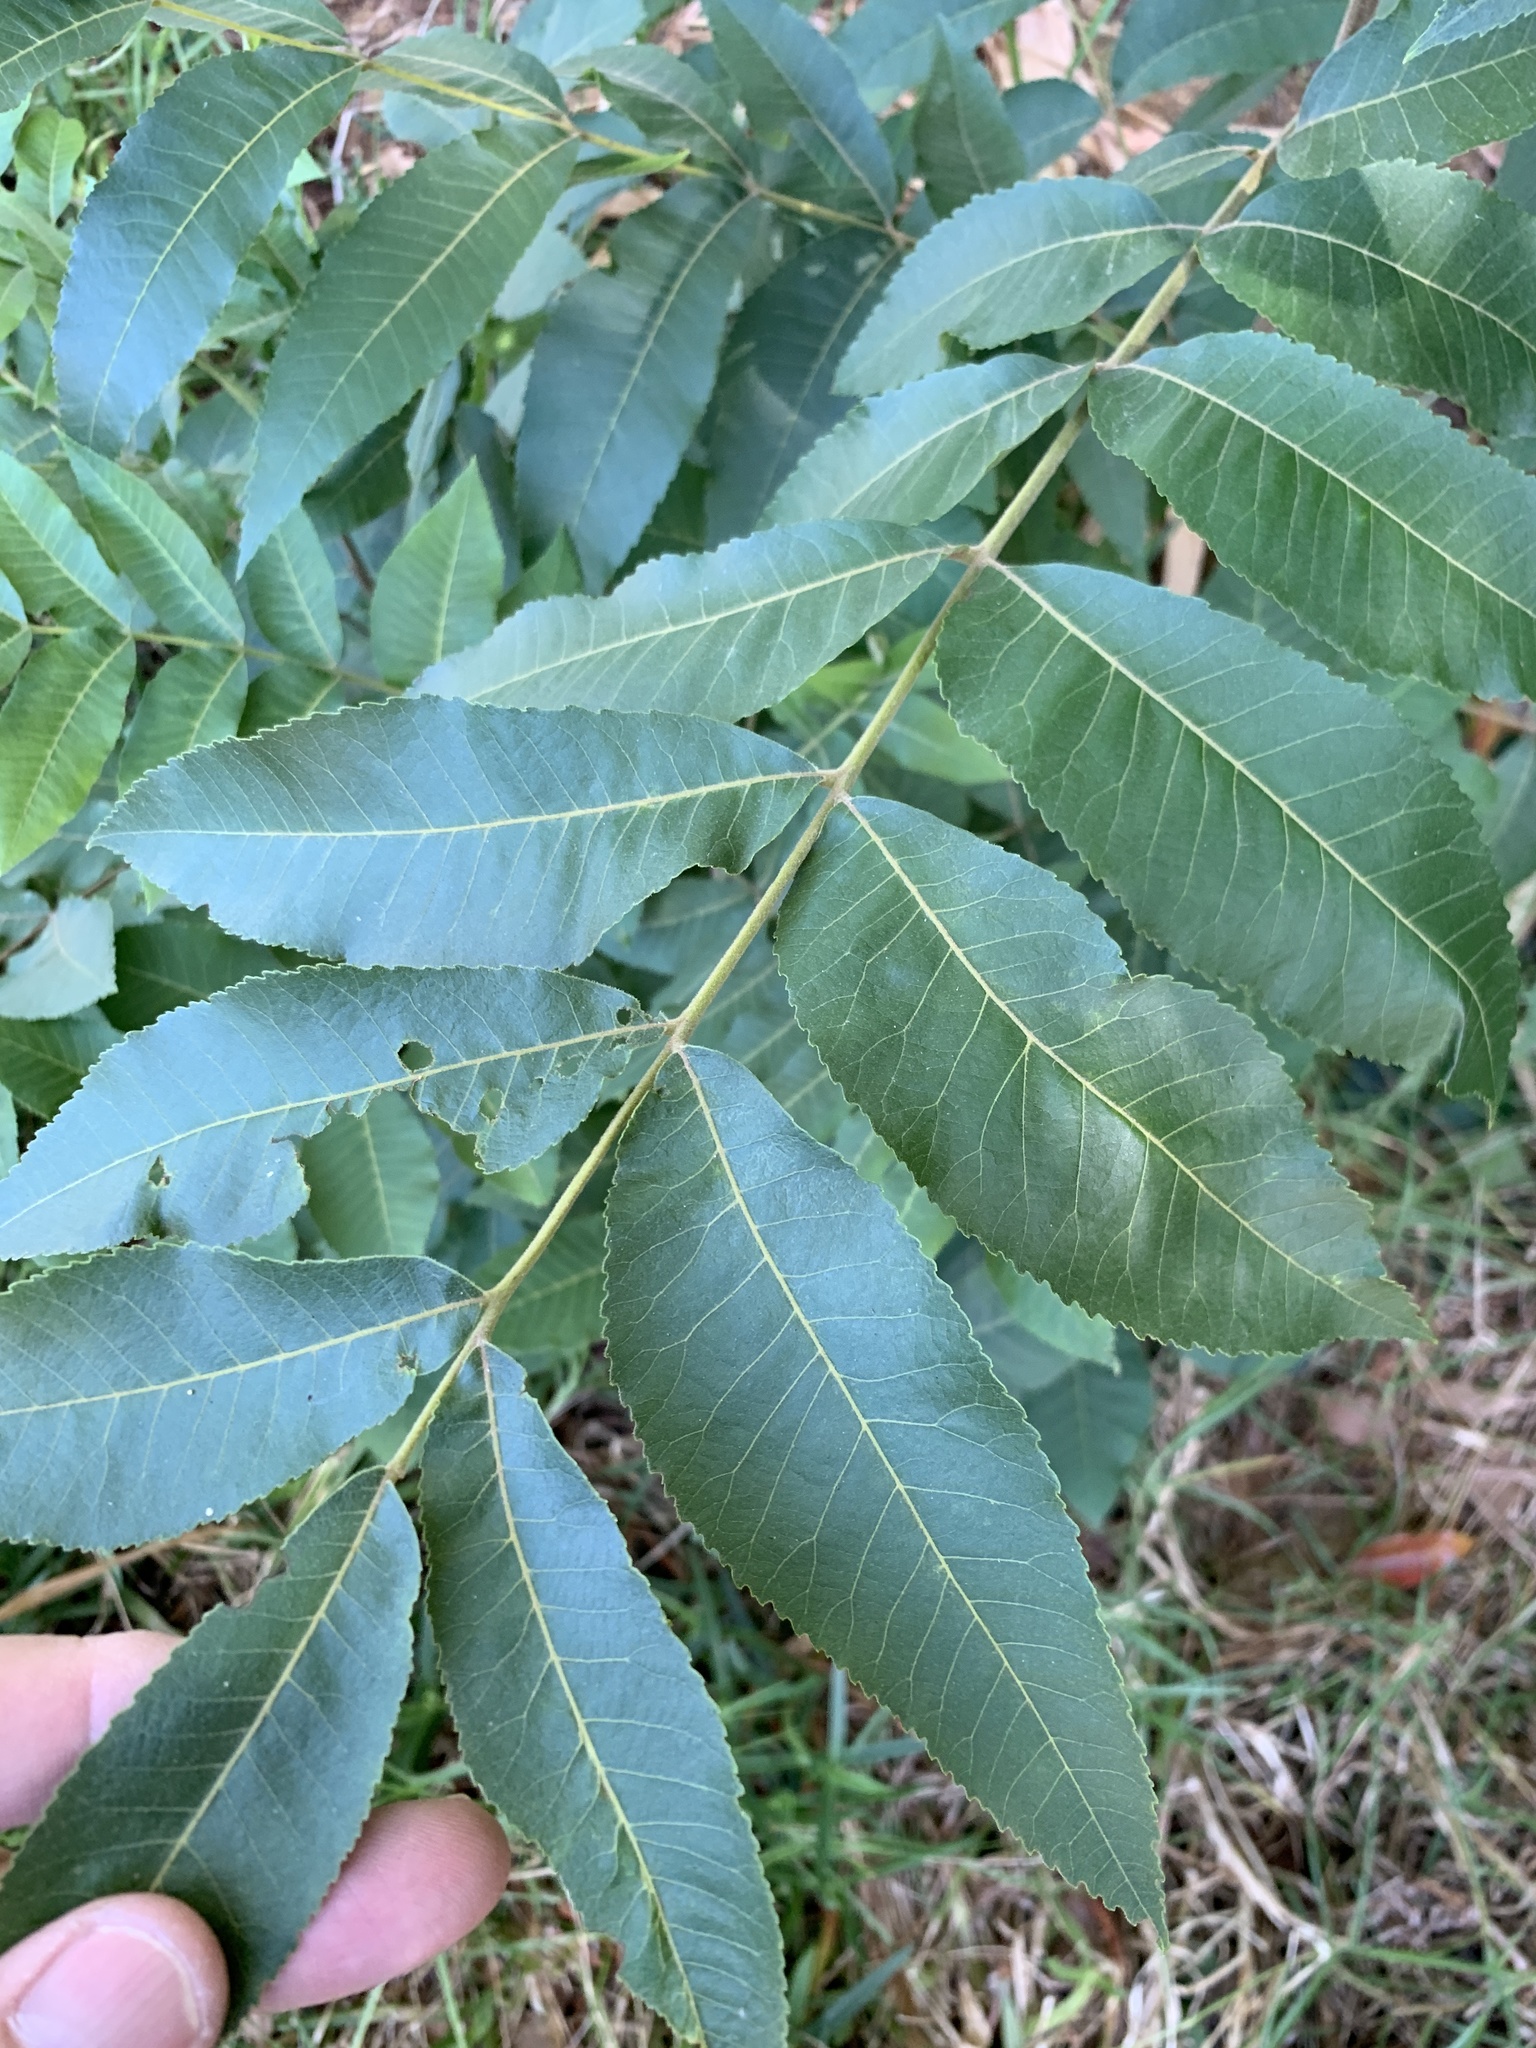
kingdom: Plantae
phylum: Tracheophyta
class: Magnoliopsida
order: Fagales
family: Juglandaceae
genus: Carya
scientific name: Carya illinoinensis
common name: Pecan
